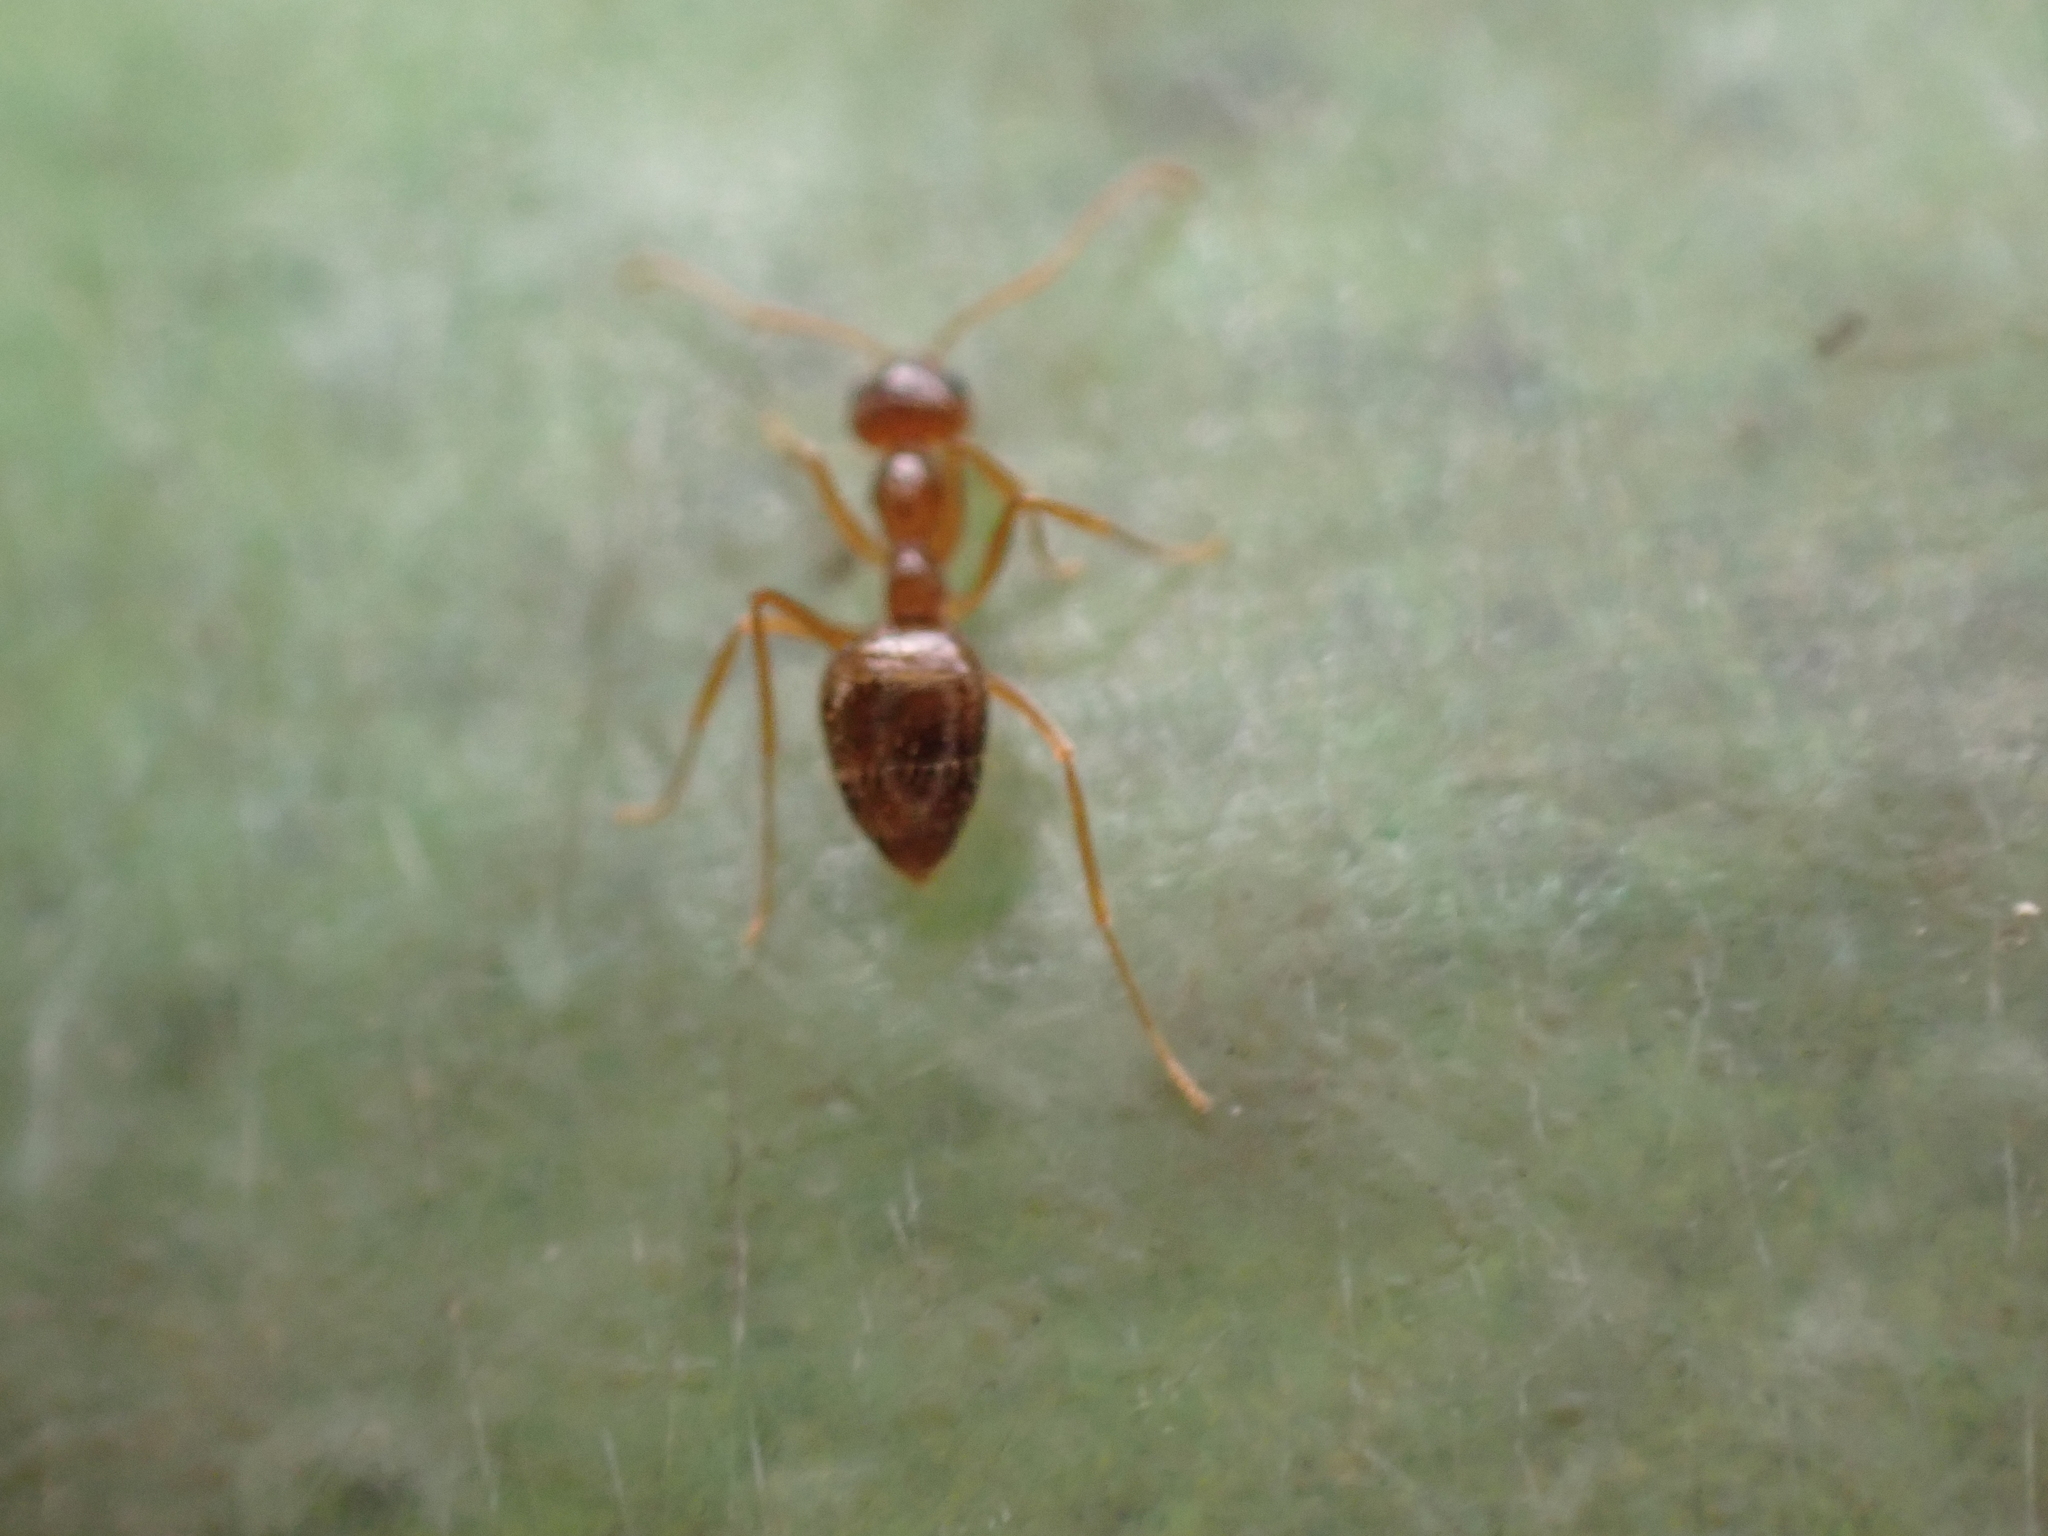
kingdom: Animalia
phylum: Arthropoda
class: Insecta
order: Hymenoptera
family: Formicidae
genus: Prenolepis
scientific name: Prenolepis imparis
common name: Small honey ant
